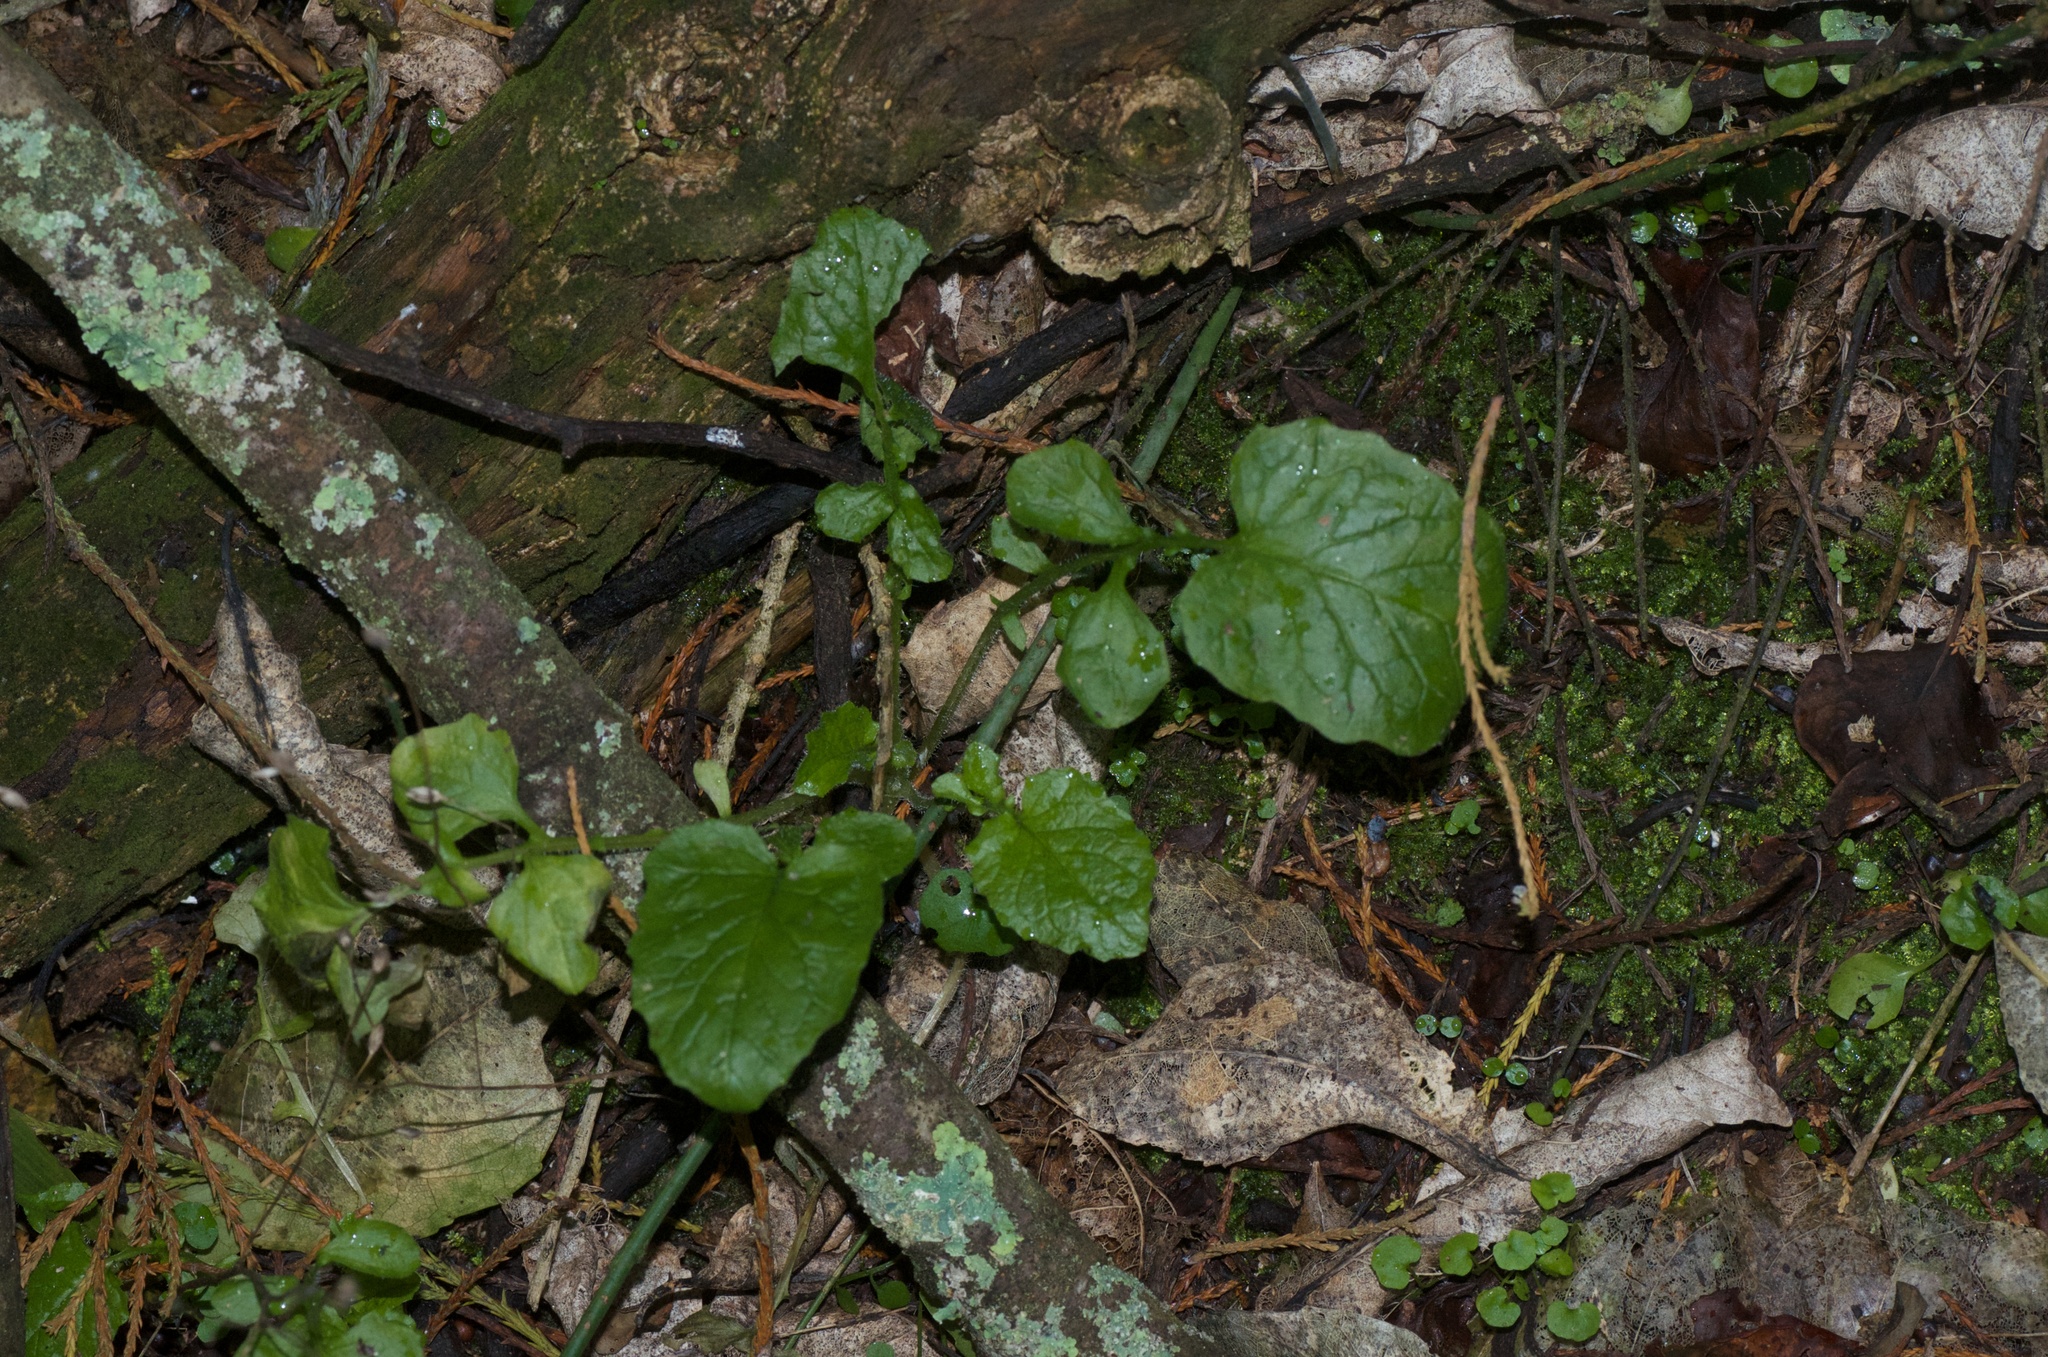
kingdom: Plantae
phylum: Tracheophyta
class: Magnoliopsida
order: Asterales
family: Asteraceae
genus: Lapsana
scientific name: Lapsana communis
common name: Nipplewort
